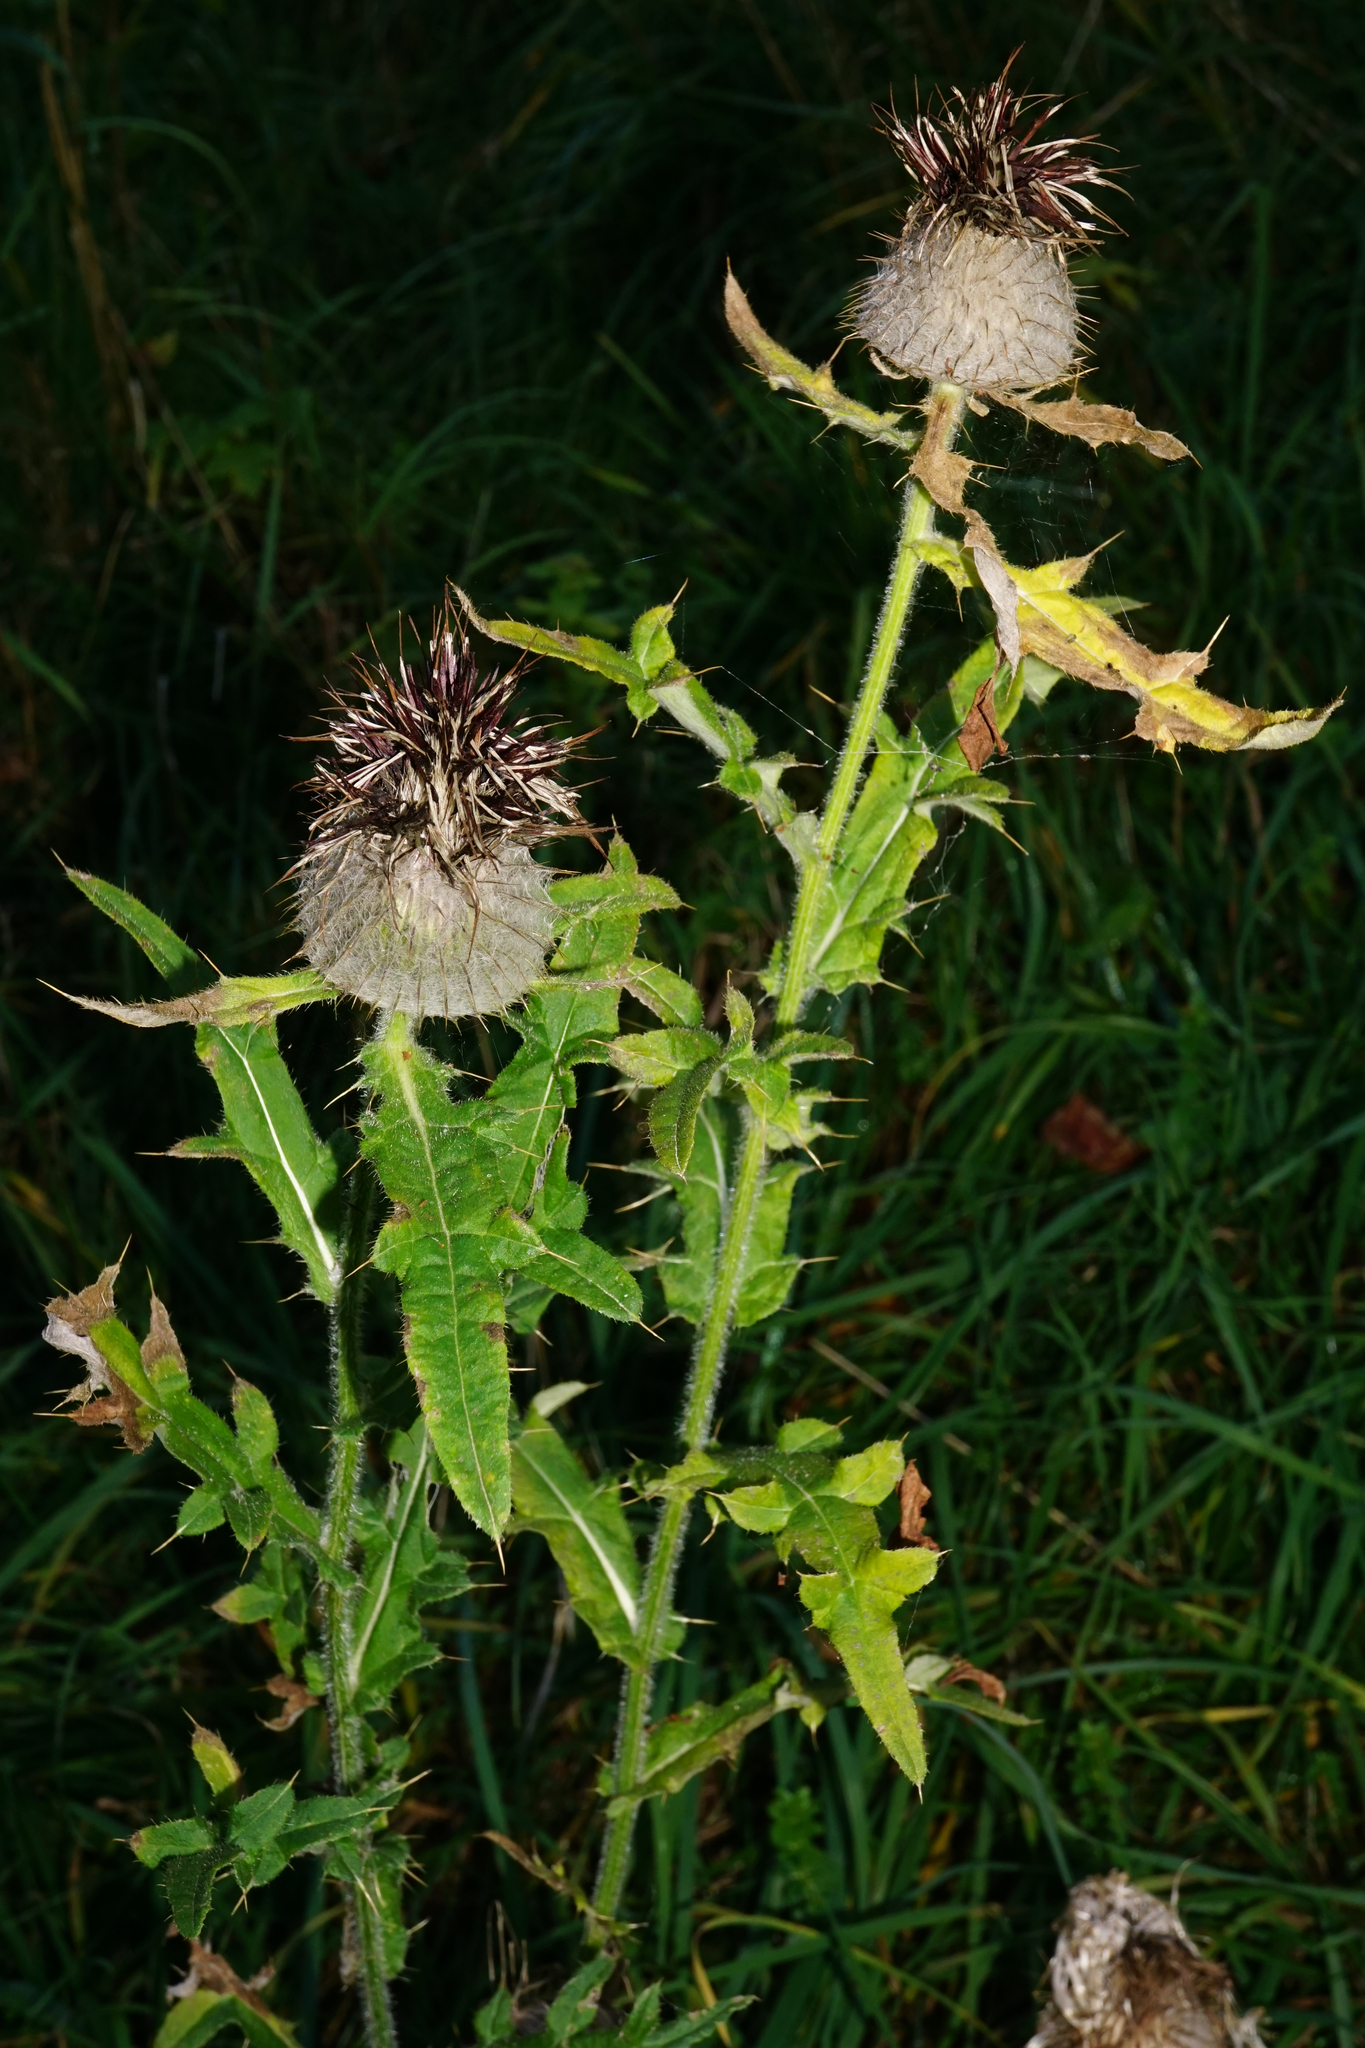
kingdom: Plantae
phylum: Tracheophyta
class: Magnoliopsida
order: Asterales
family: Asteraceae
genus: Lophiolepis
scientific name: Lophiolepis eriophora
